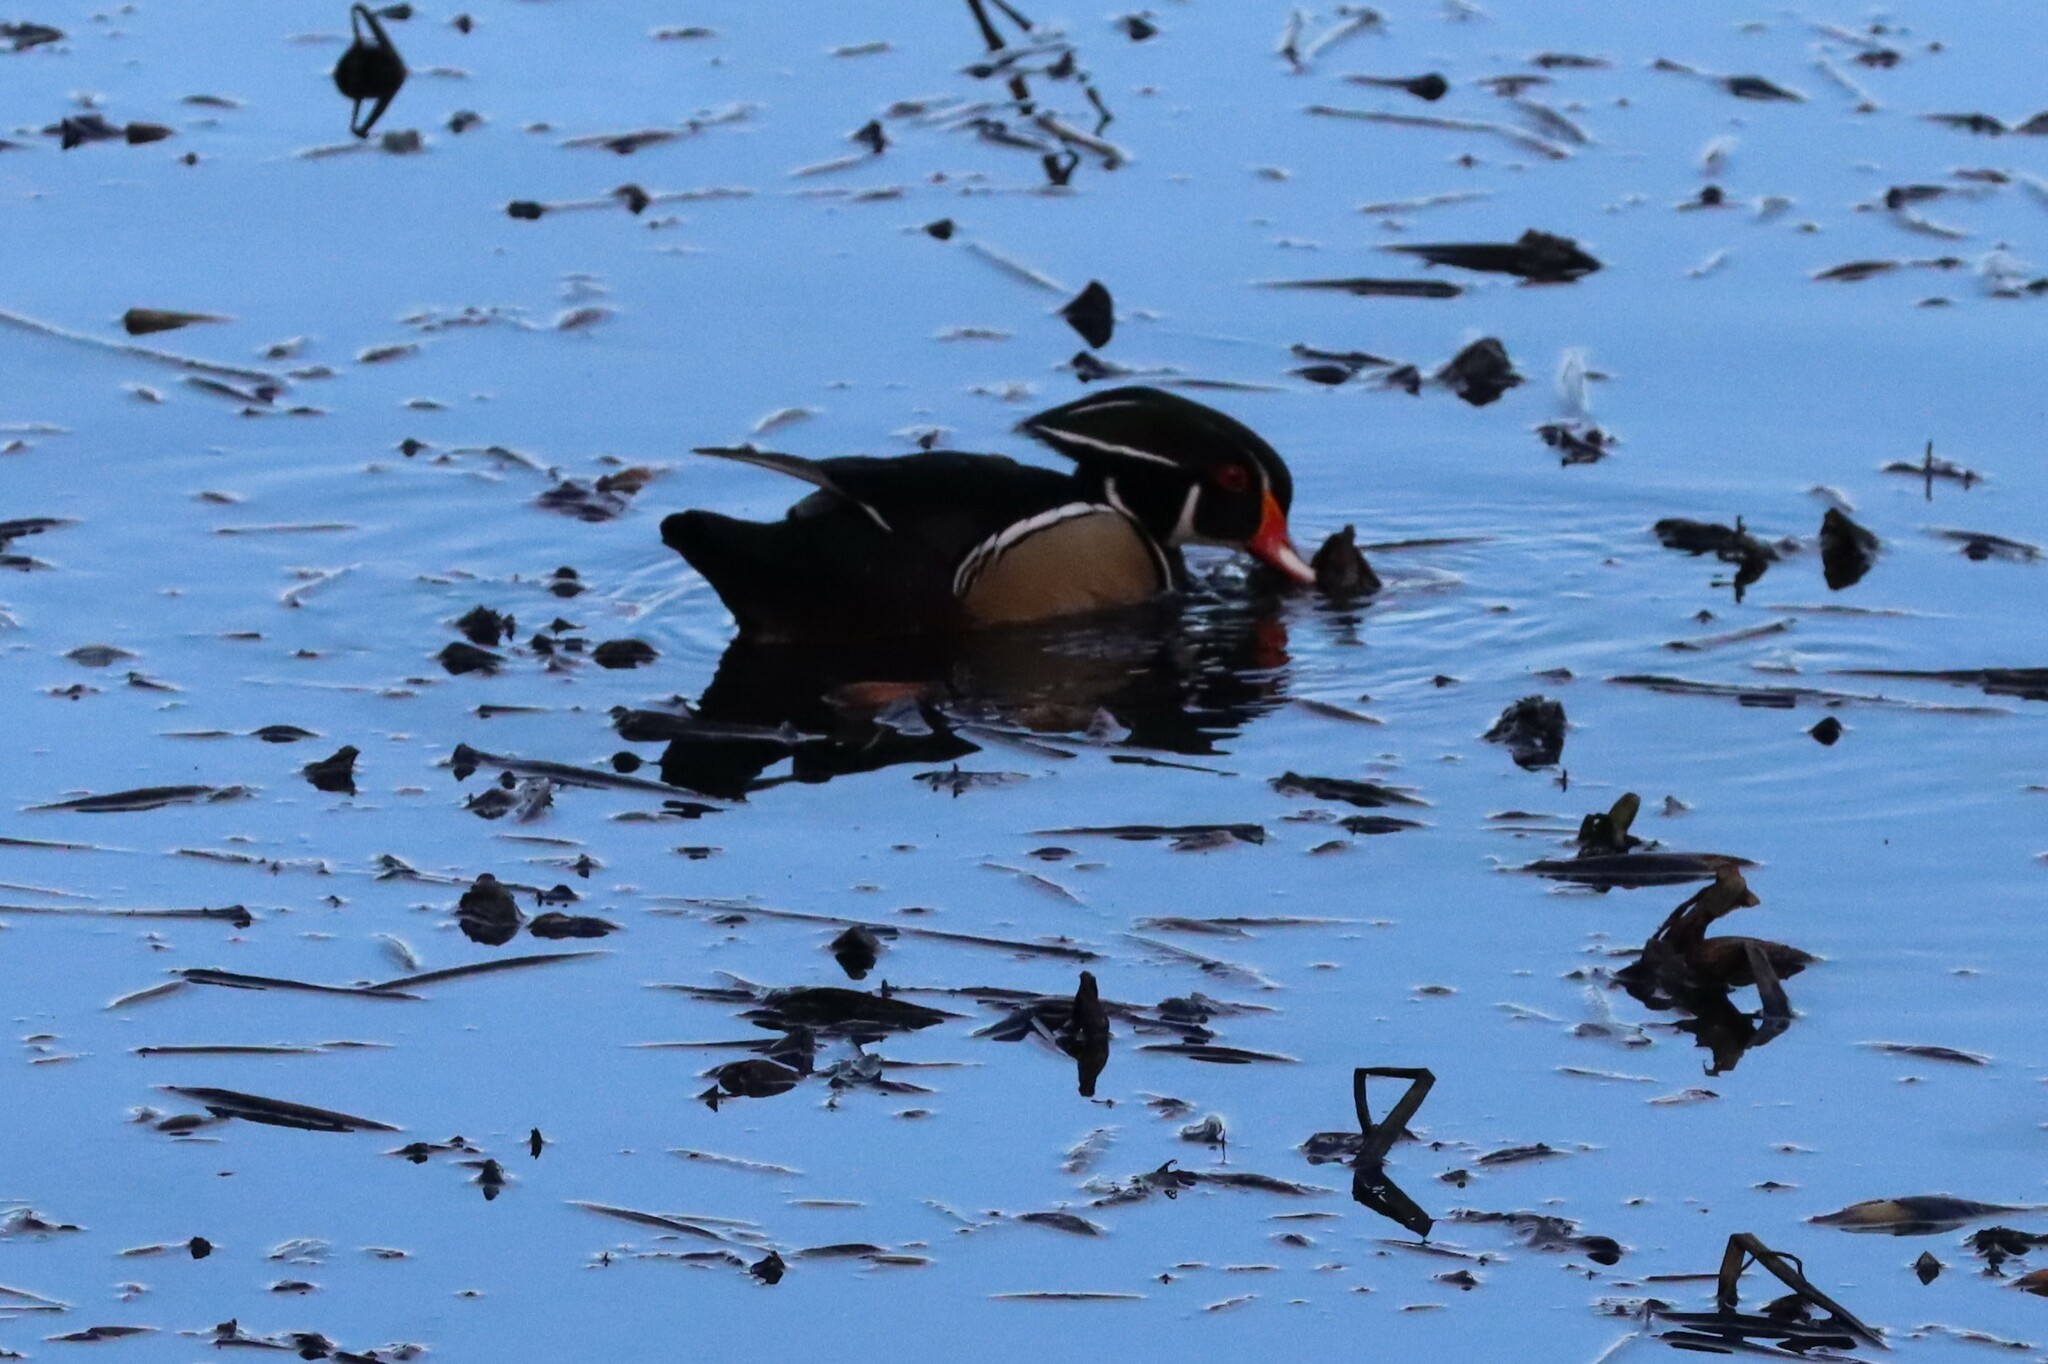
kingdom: Animalia
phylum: Chordata
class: Aves
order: Anseriformes
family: Anatidae
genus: Aix
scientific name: Aix sponsa
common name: Wood duck
